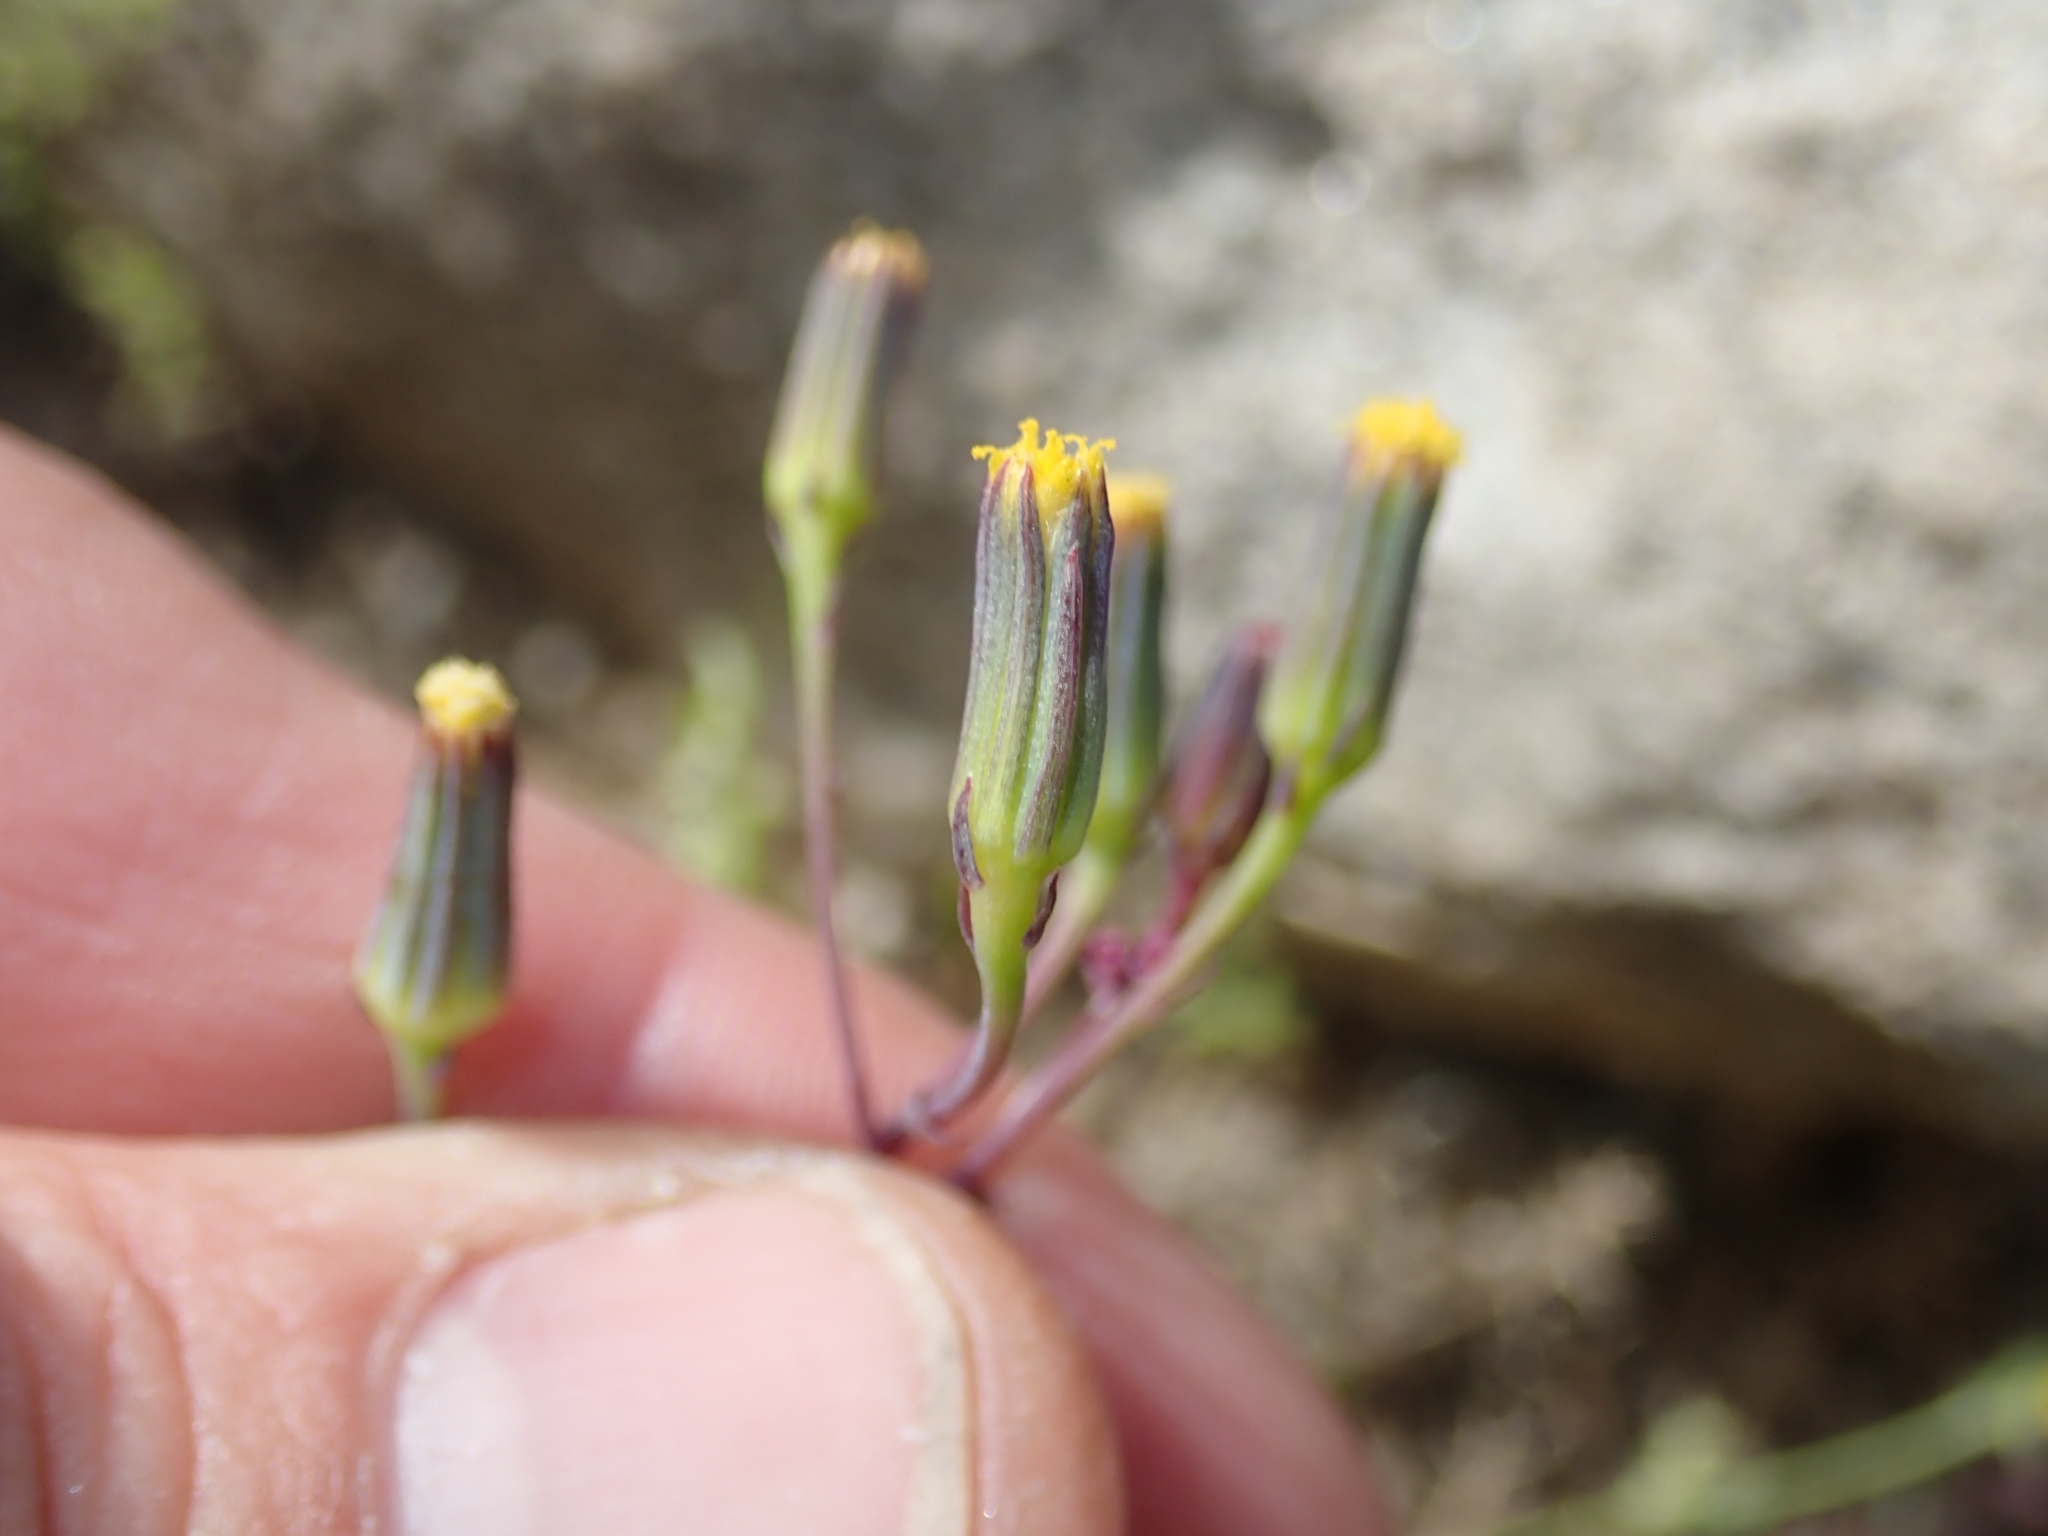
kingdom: Plantae
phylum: Tracheophyta
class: Magnoliopsida
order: Asterales
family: Asteraceae
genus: Senecio
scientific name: Senecio mohavensis
